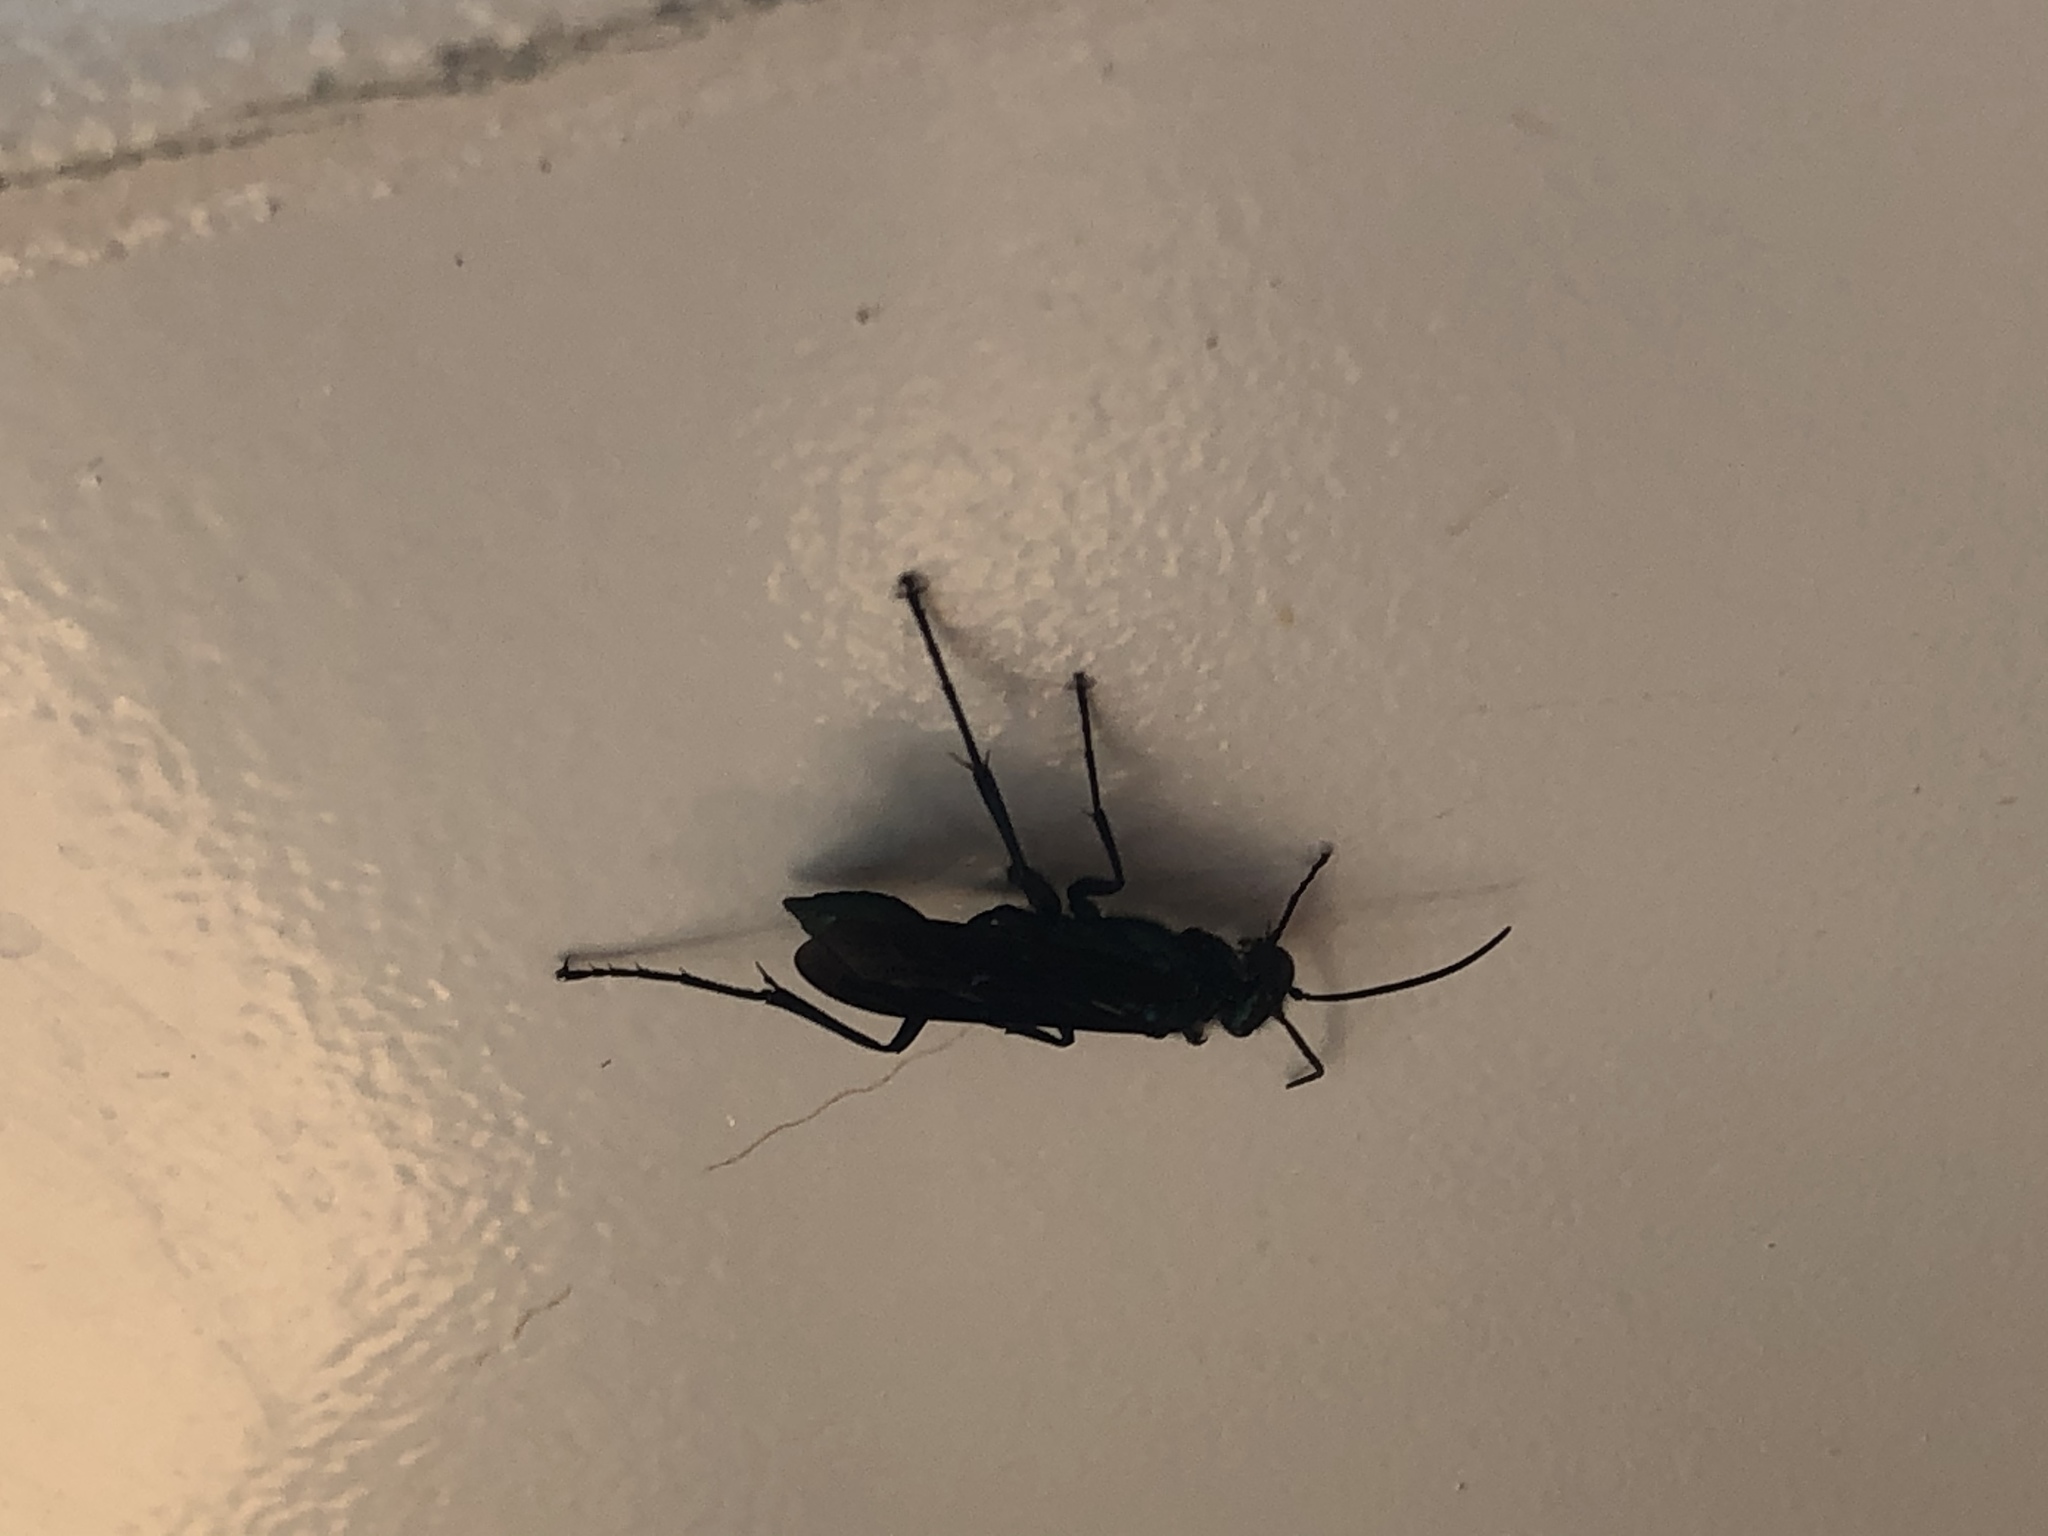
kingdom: Animalia
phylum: Arthropoda
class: Insecta
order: Hymenoptera
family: Sphecidae
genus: Chalybion
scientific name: Chalybion californicum
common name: Mud dauber
